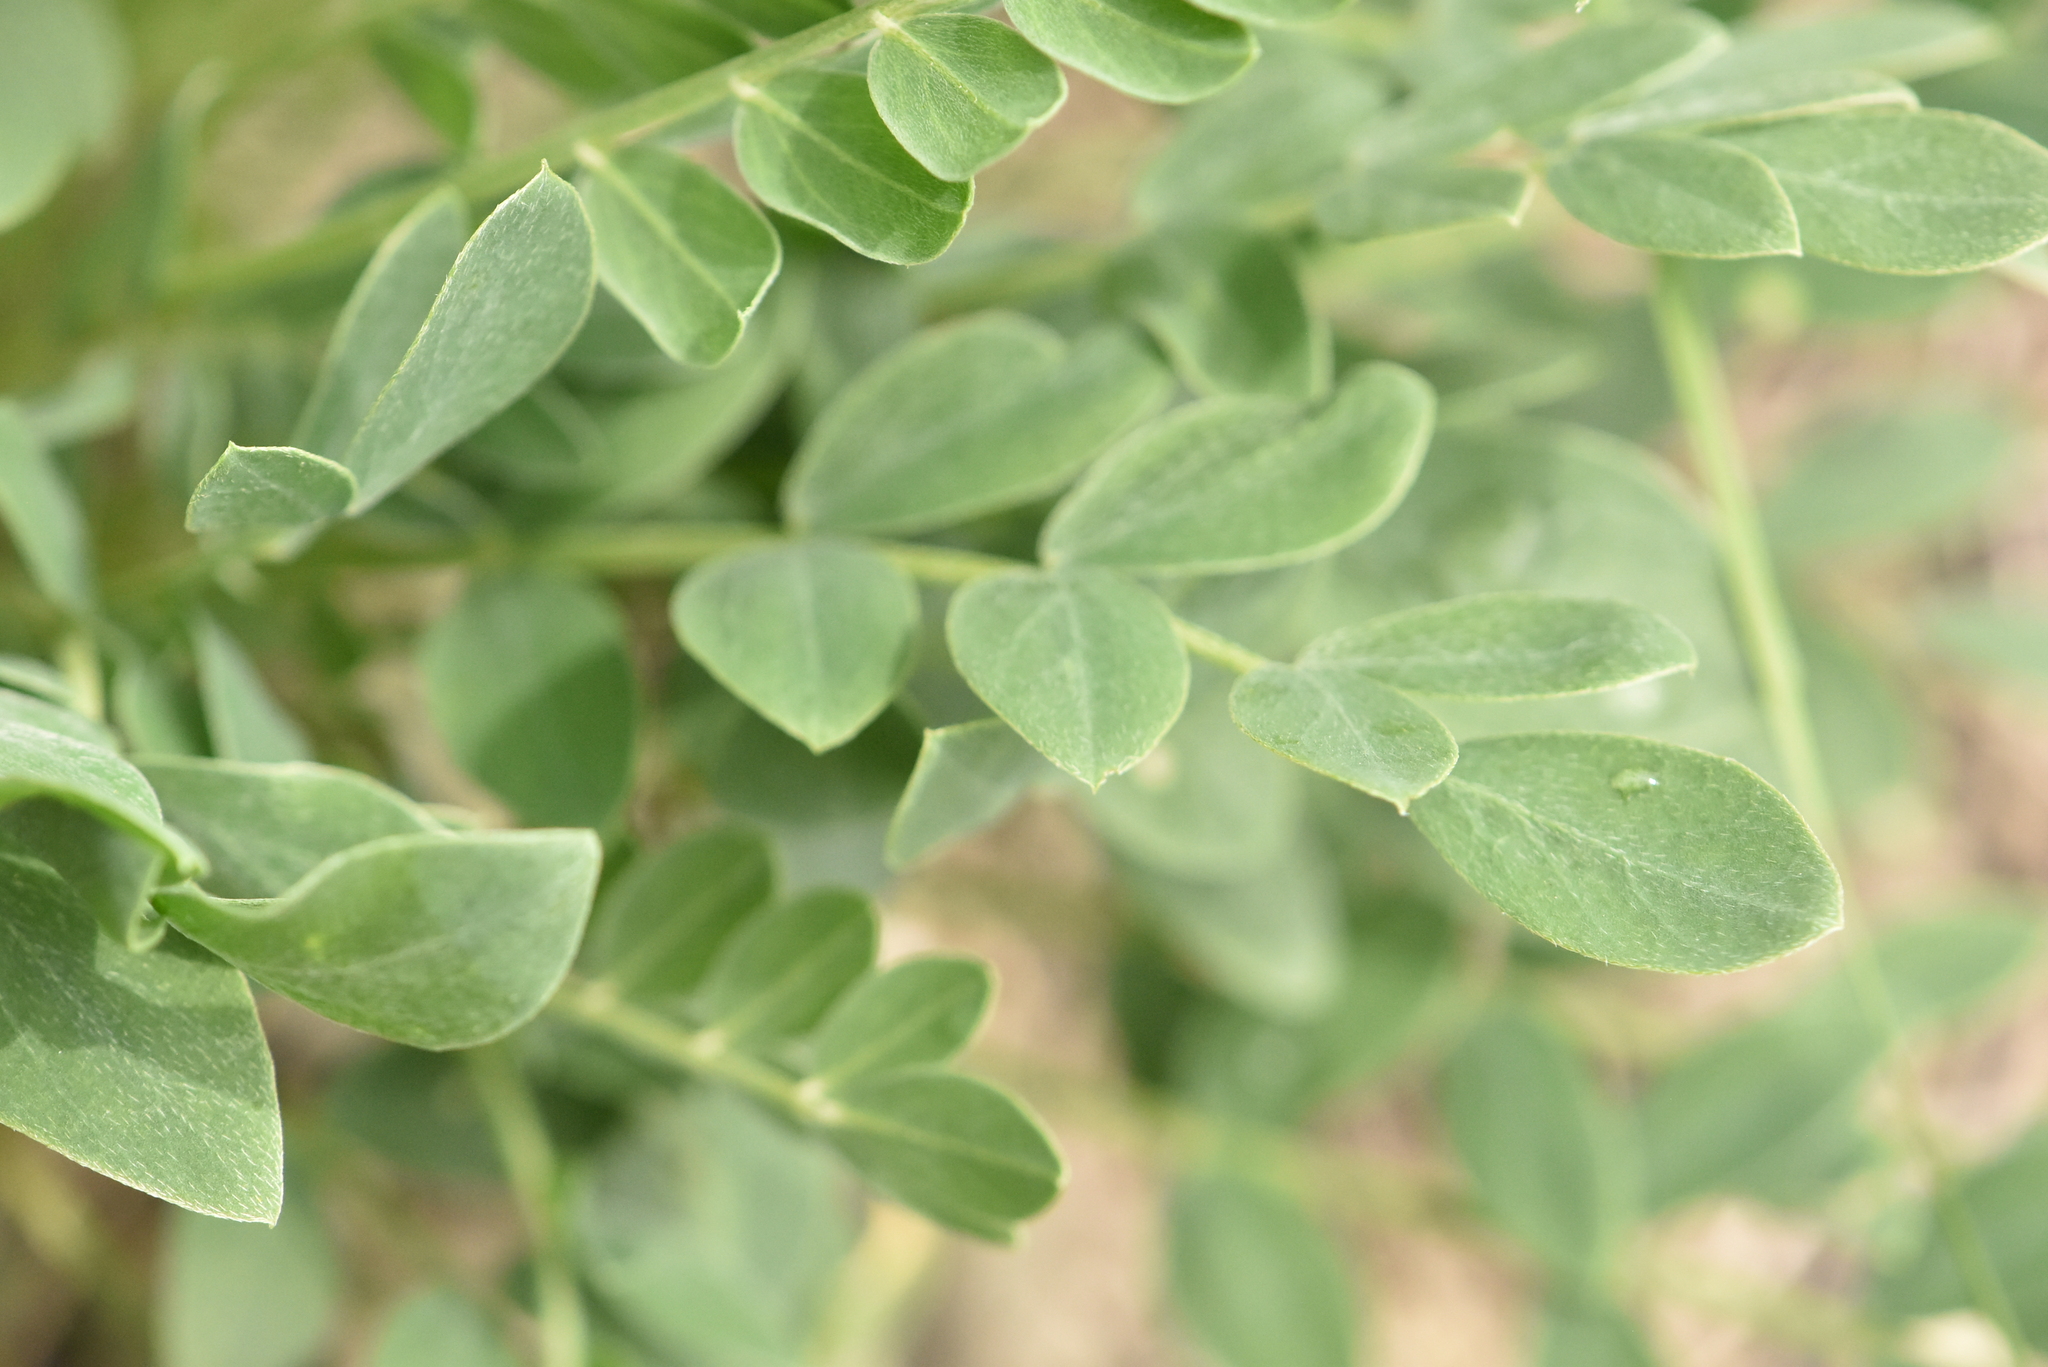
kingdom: Plantae
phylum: Tracheophyta
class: Magnoliopsida
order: Fabales
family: Fabaceae
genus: Colutea
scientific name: Colutea cilicica
